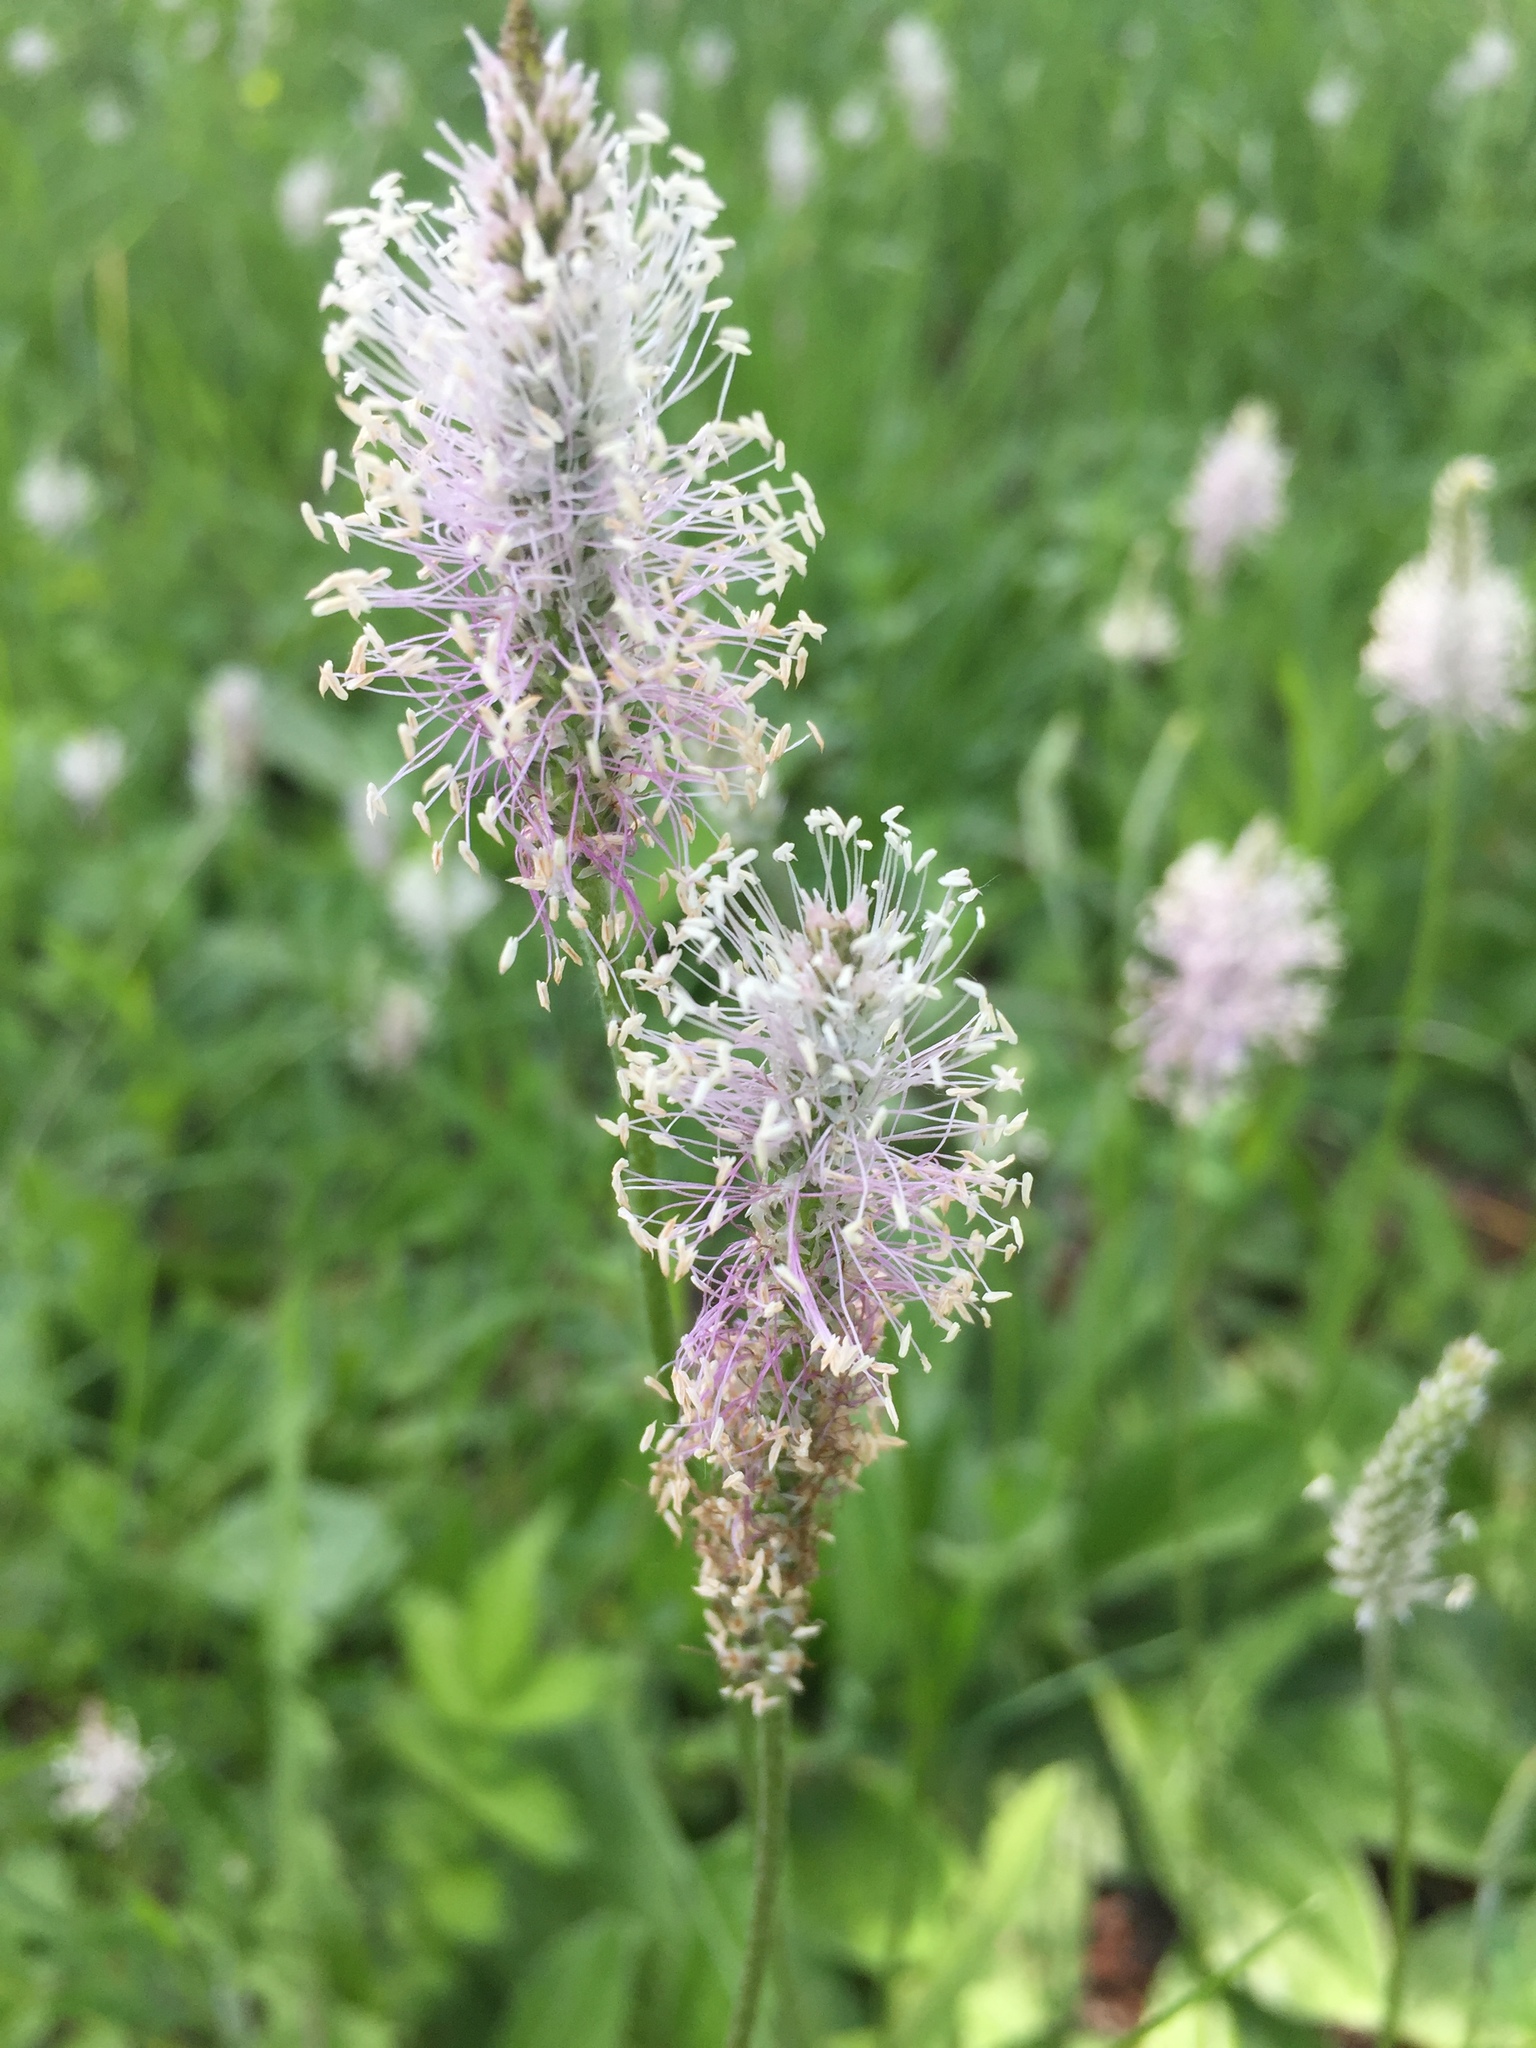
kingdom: Plantae
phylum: Tracheophyta
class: Magnoliopsida
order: Lamiales
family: Plantaginaceae
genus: Plantago
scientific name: Plantago media
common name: Hoary plantain
